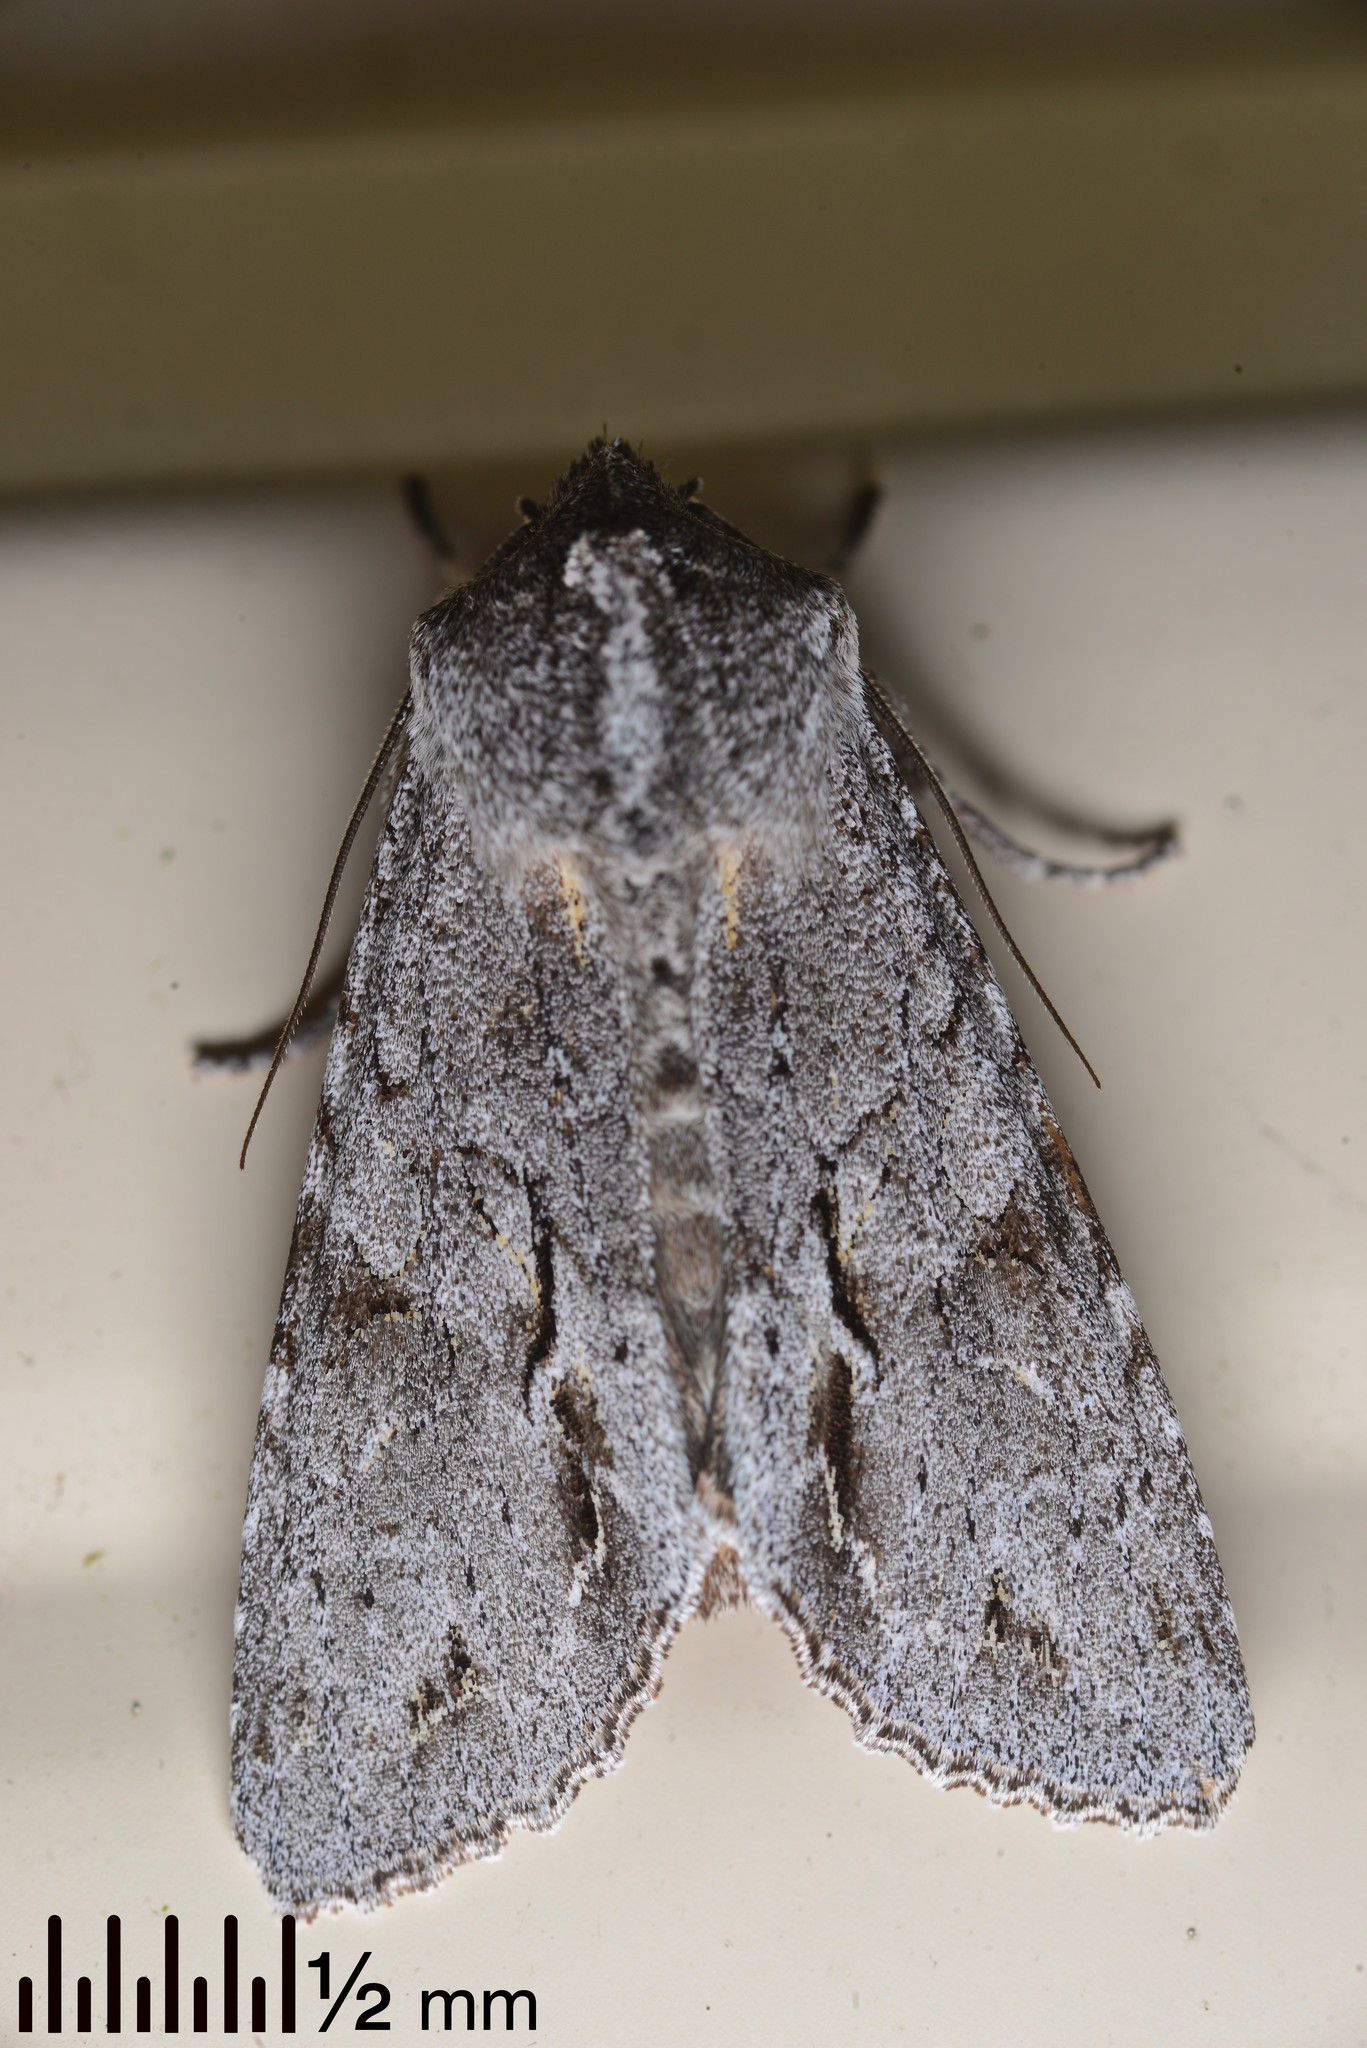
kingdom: Animalia
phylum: Arthropoda
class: Insecta
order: Lepidoptera
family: Noctuidae
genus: Ichneutica
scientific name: Ichneutica
